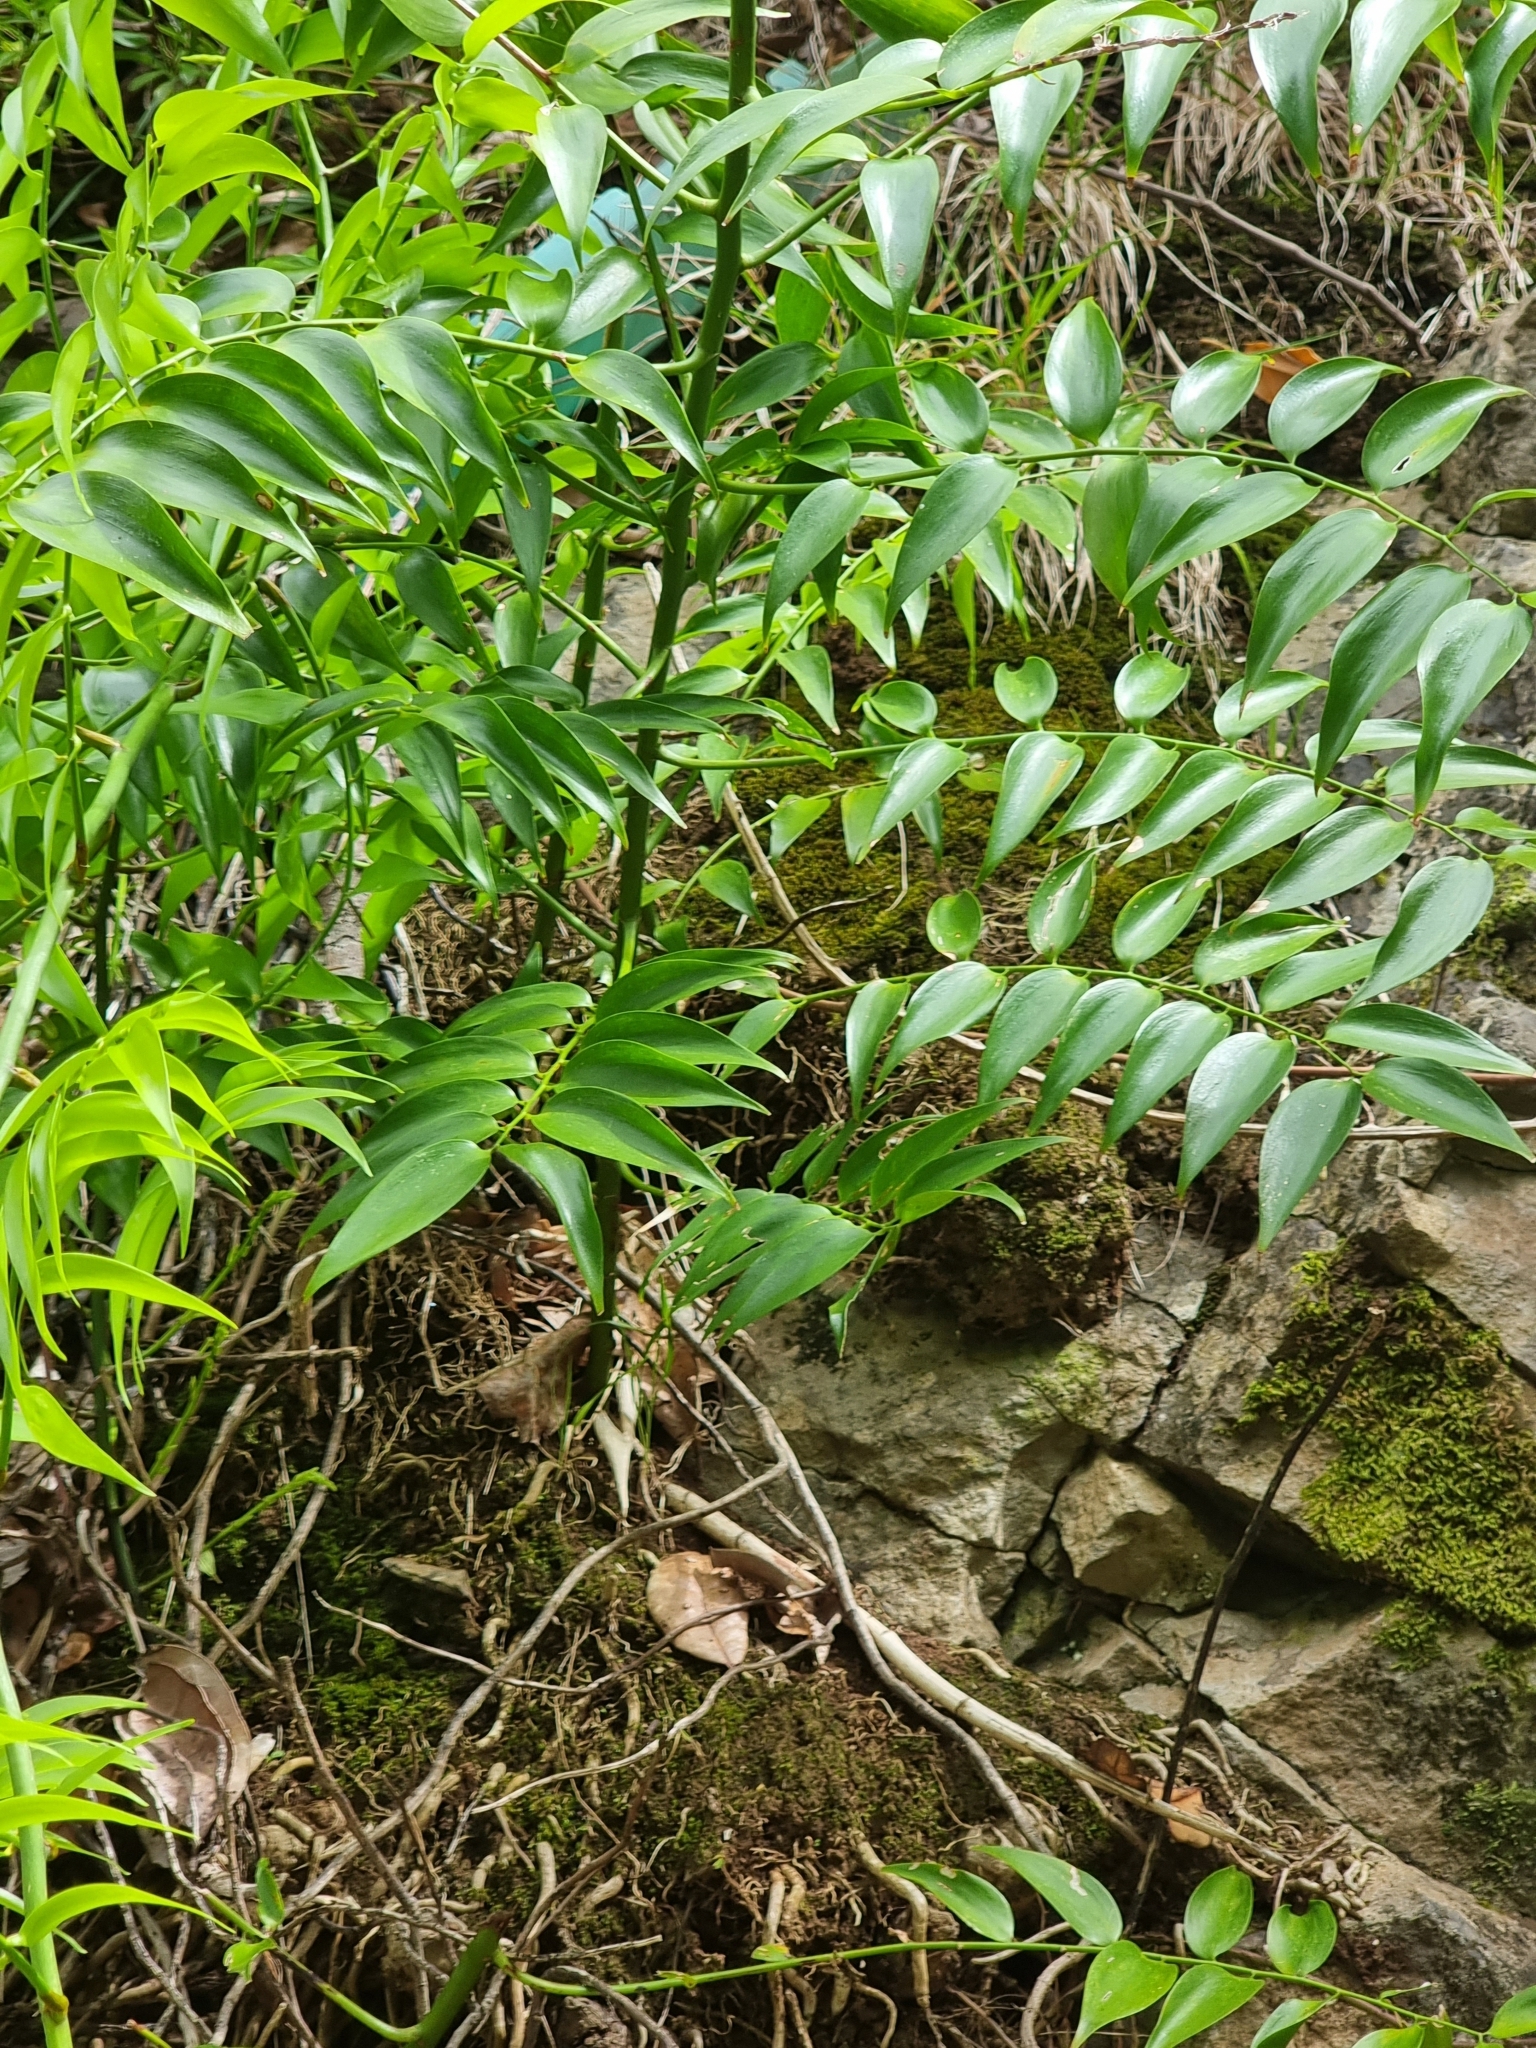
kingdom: Plantae
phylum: Tracheophyta
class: Liliopsida
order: Asparagales
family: Asparagaceae
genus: Semele
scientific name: Semele androgyna
